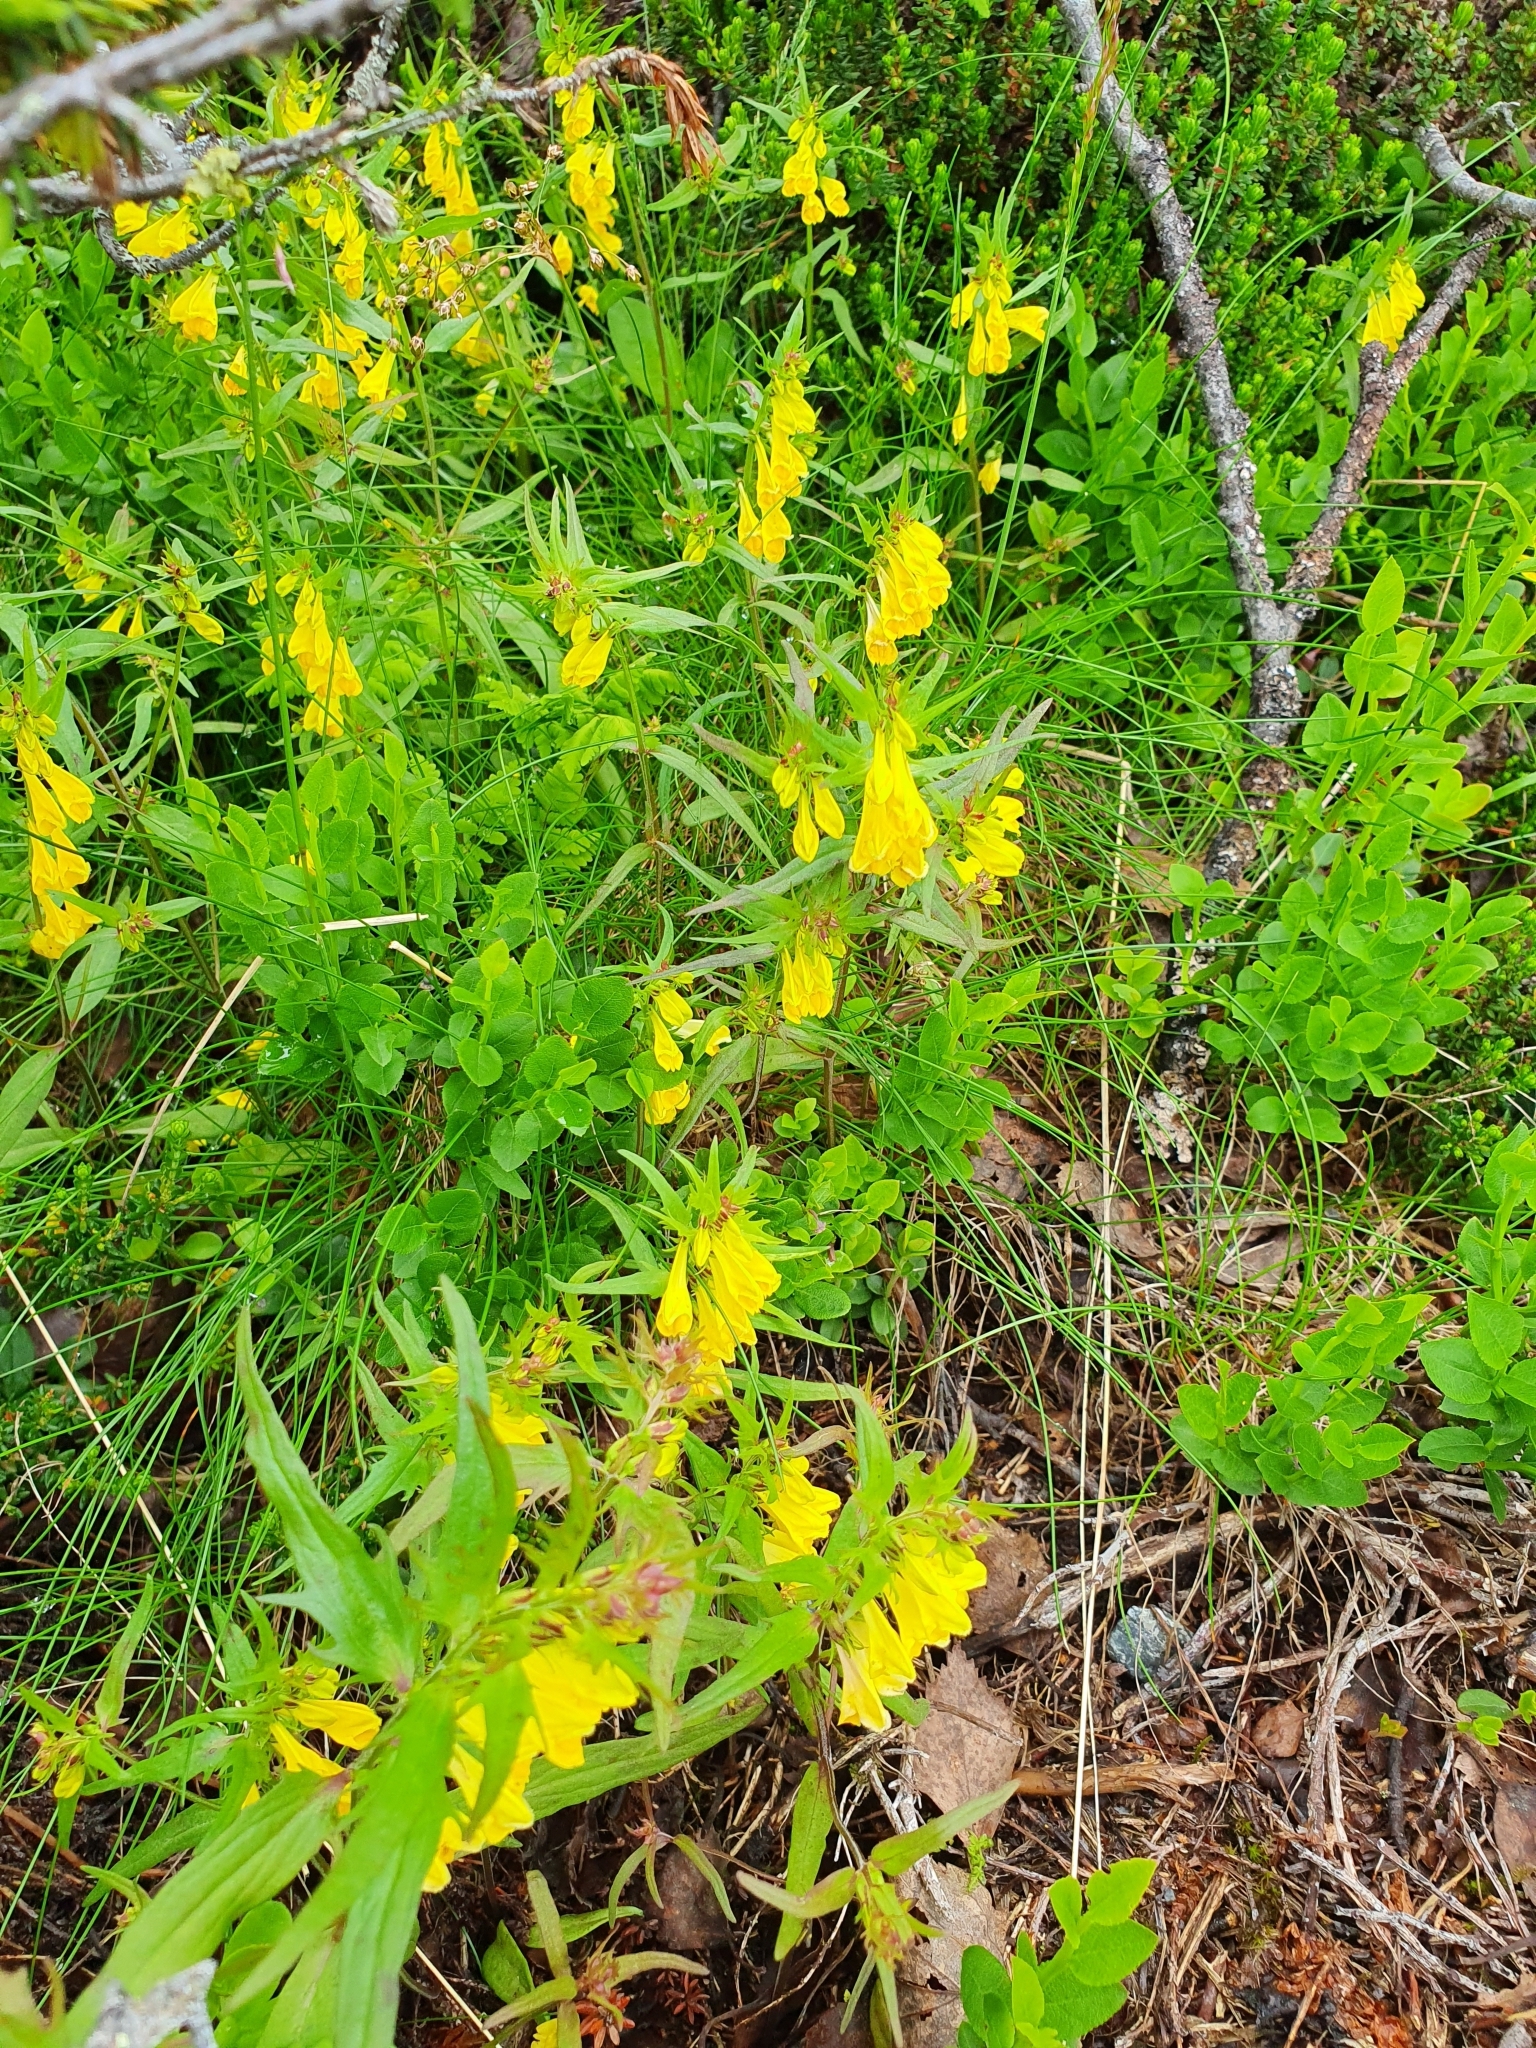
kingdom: Plantae
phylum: Tracheophyta
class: Magnoliopsida
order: Lamiales
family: Orobanchaceae
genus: Melampyrum
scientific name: Melampyrum pratense
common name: Common cow-wheat
